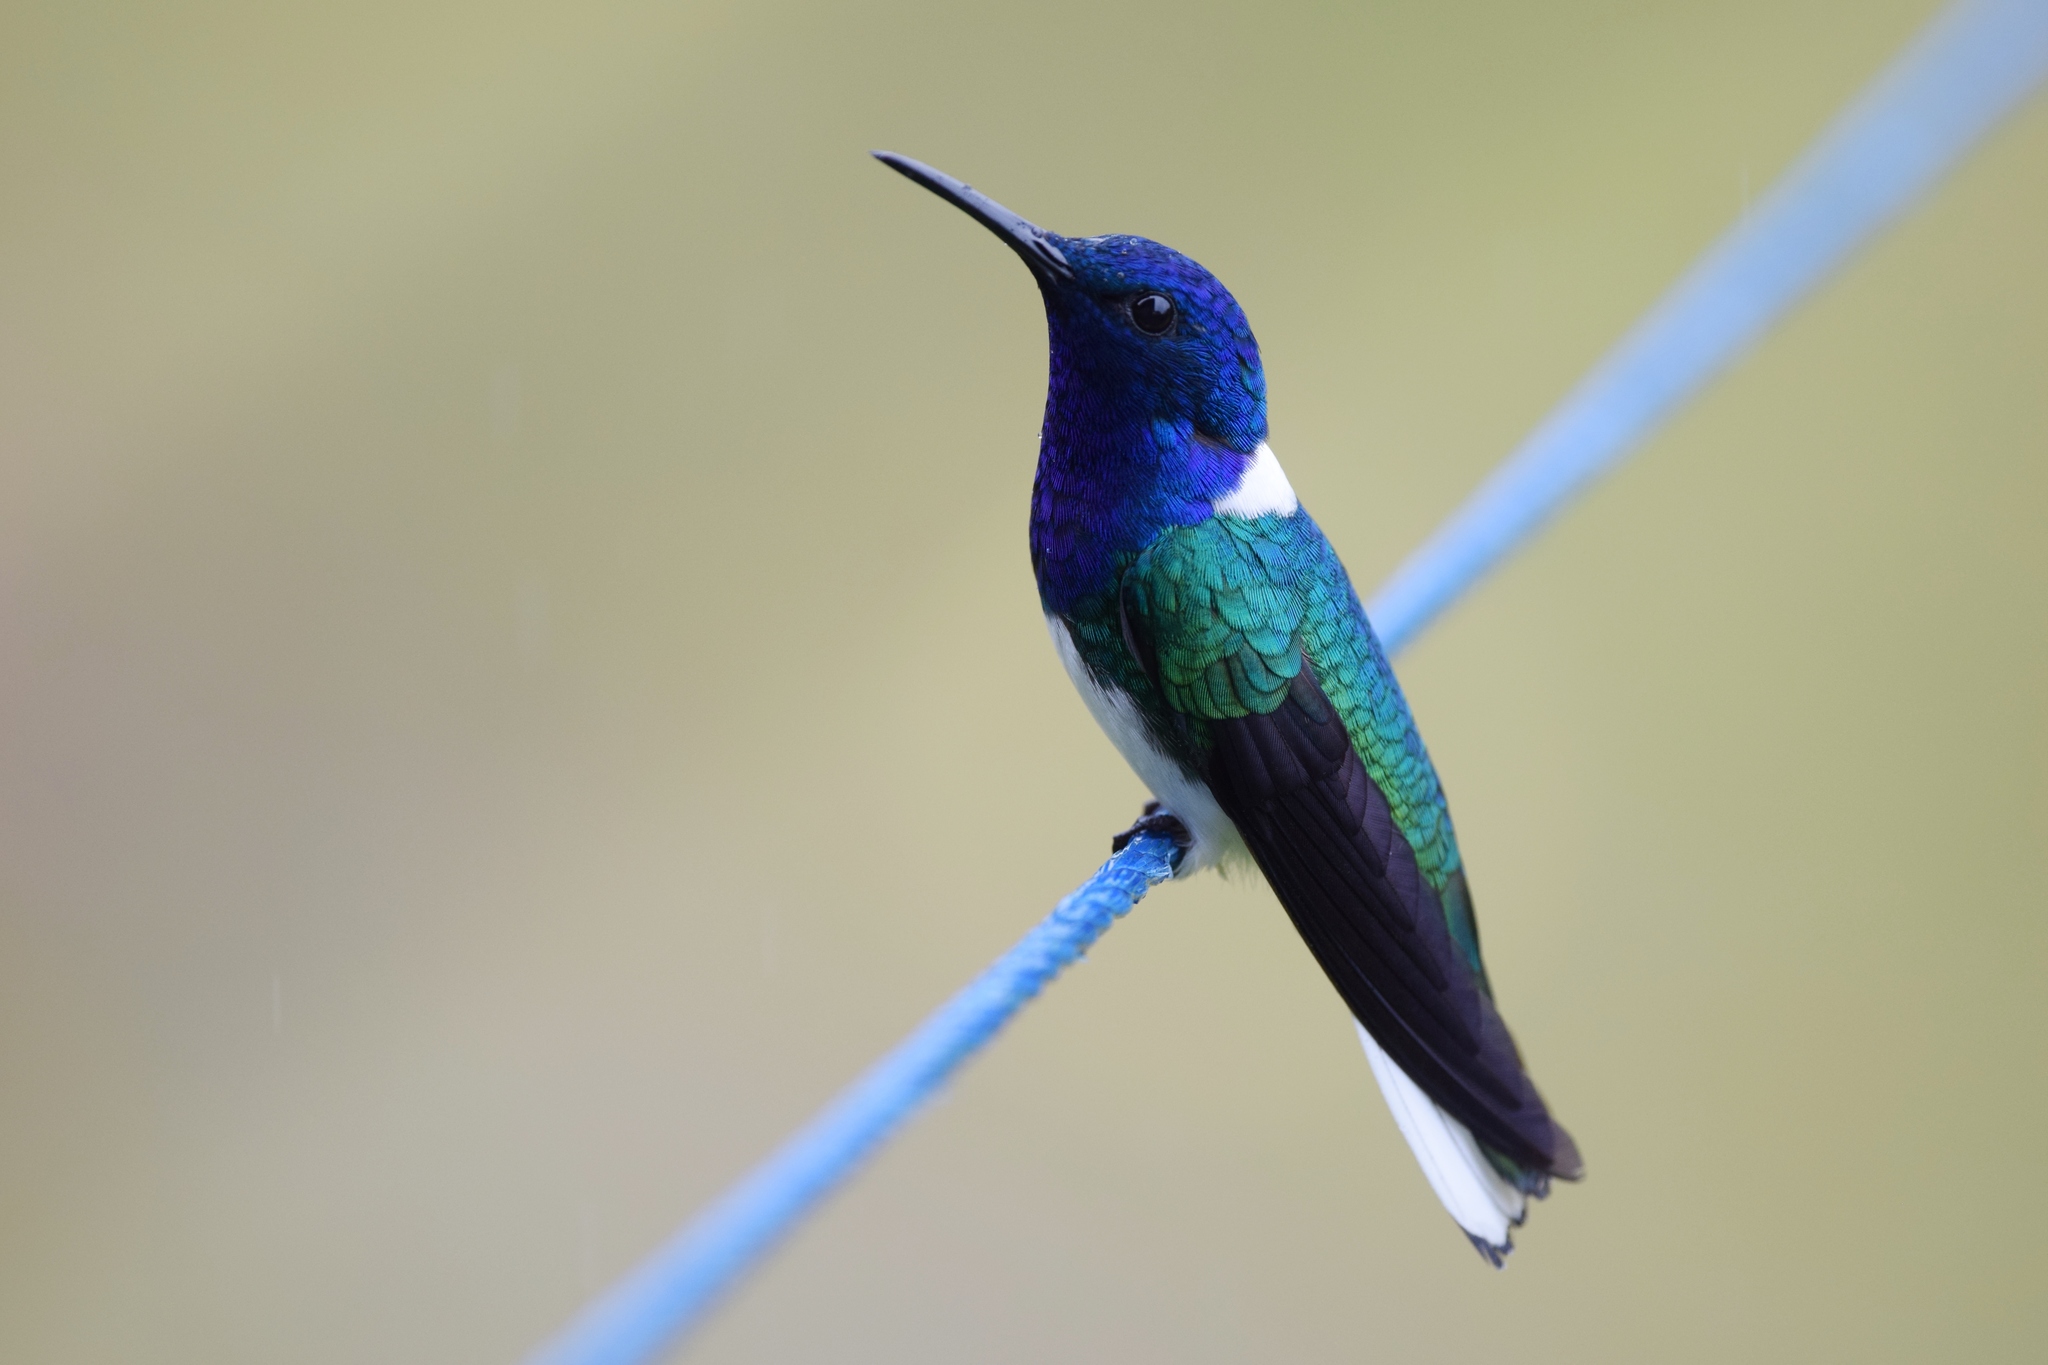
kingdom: Animalia
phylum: Chordata
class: Aves
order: Apodiformes
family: Trochilidae
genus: Florisuga
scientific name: Florisuga mellivora
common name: White-necked jacobin
